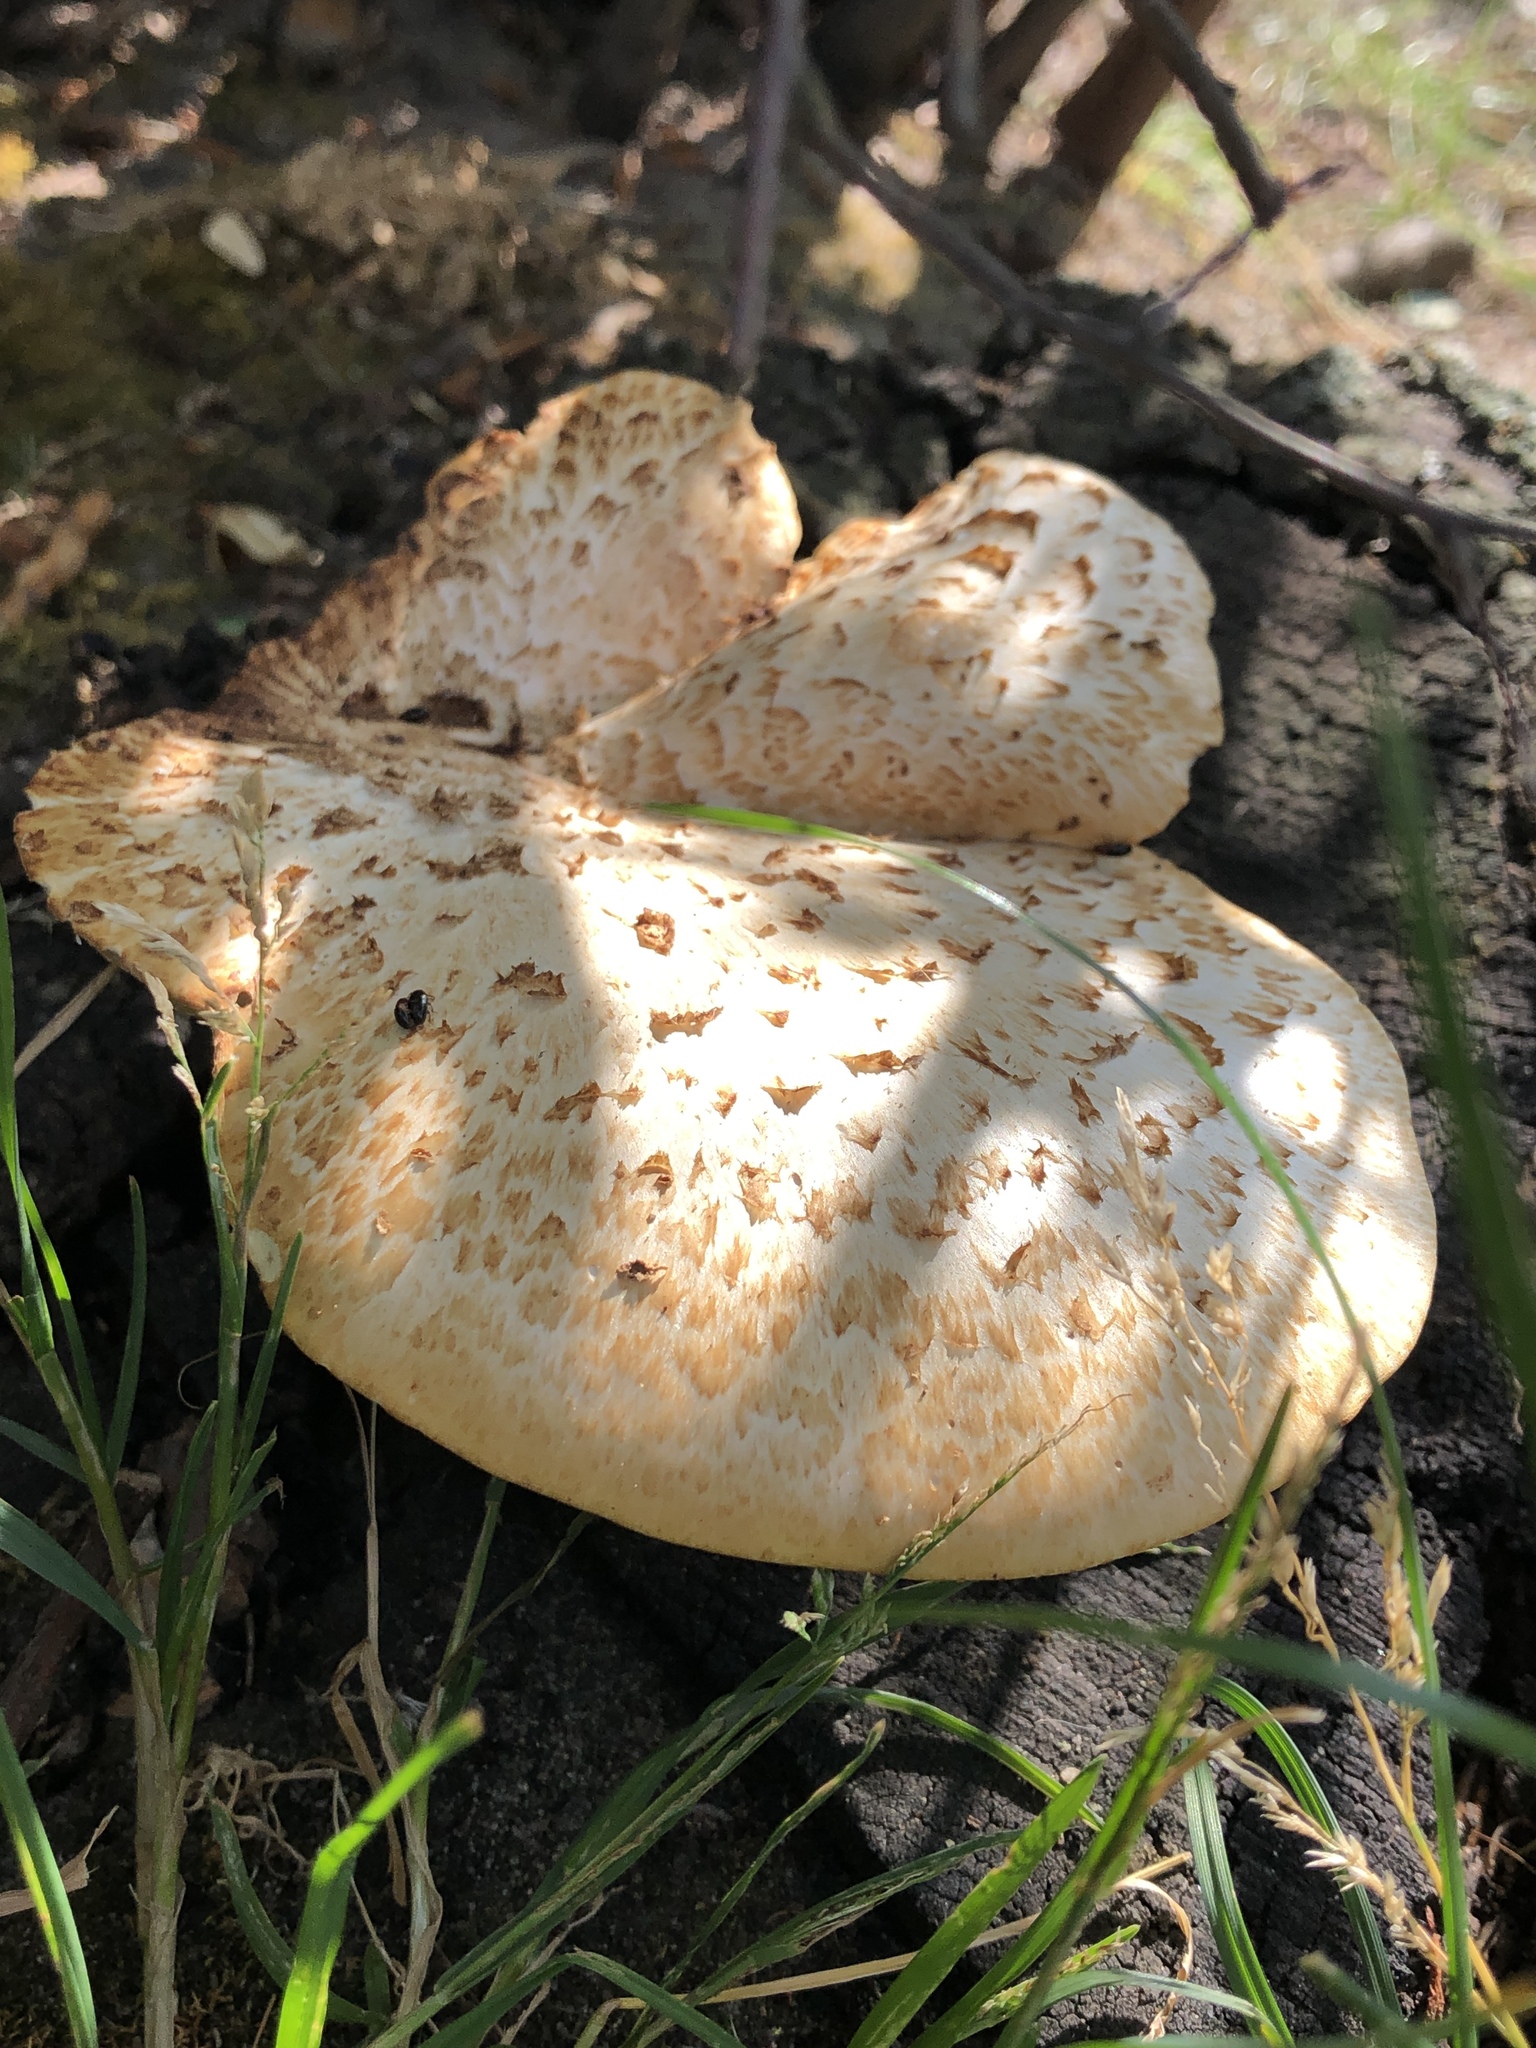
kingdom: Fungi
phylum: Basidiomycota
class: Agaricomycetes
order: Polyporales
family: Polyporaceae
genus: Cerioporus
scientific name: Cerioporus squamosus
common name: Dryad's saddle
